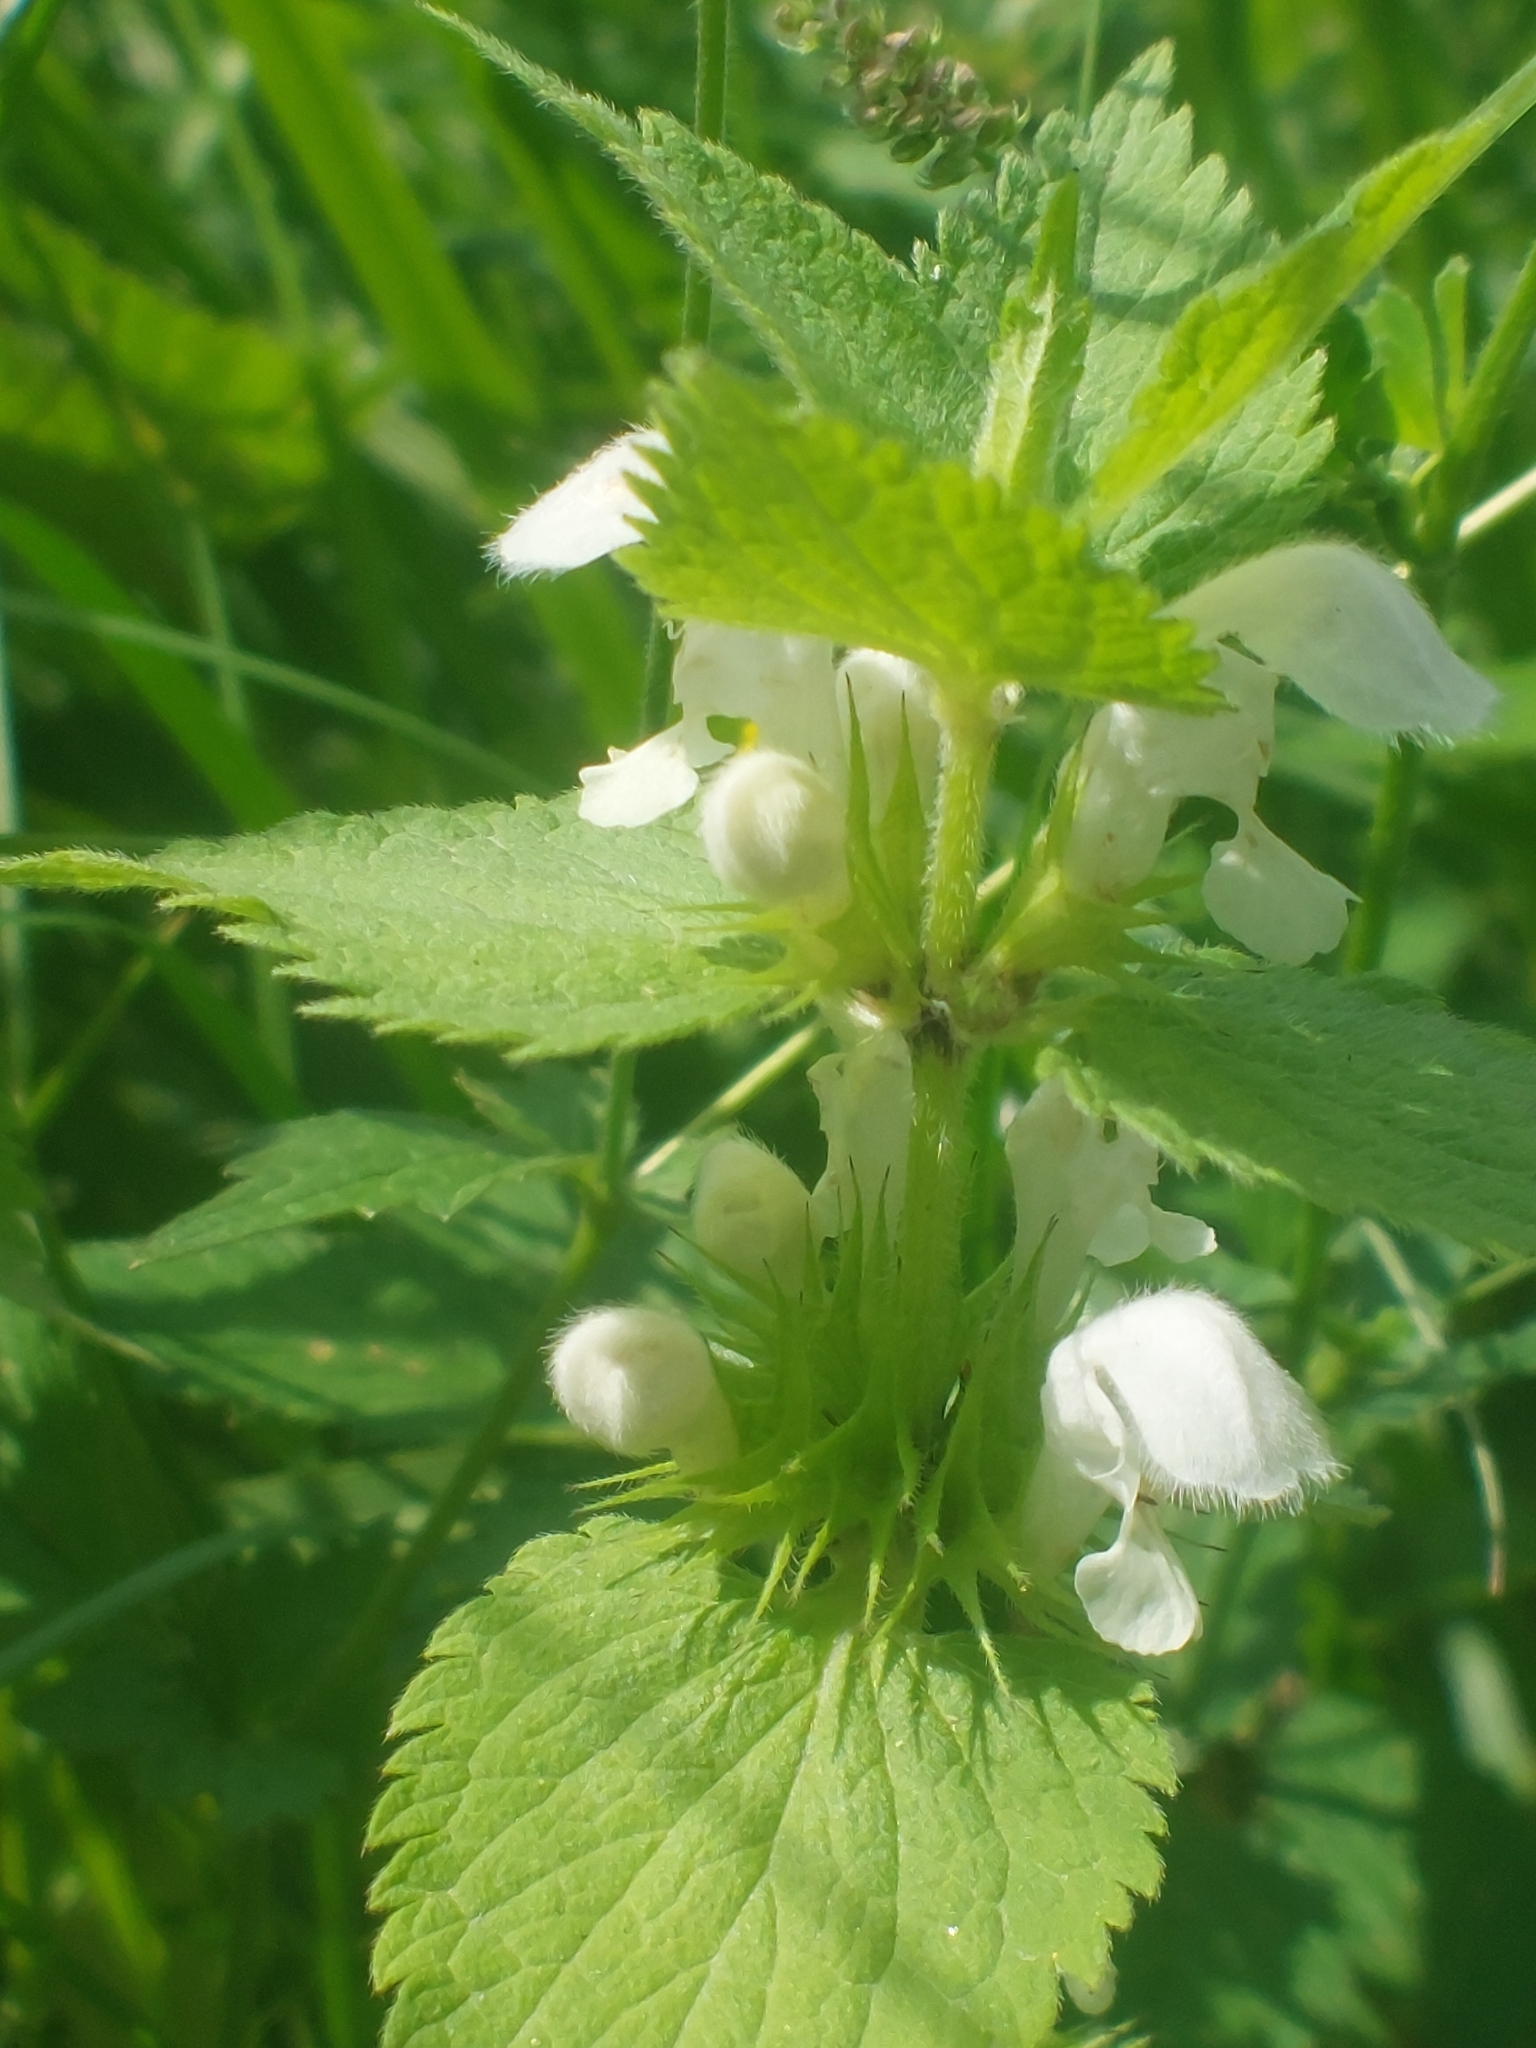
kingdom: Plantae
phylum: Tracheophyta
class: Magnoliopsida
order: Lamiales
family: Lamiaceae
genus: Lamium
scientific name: Lamium album
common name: White dead-nettle
